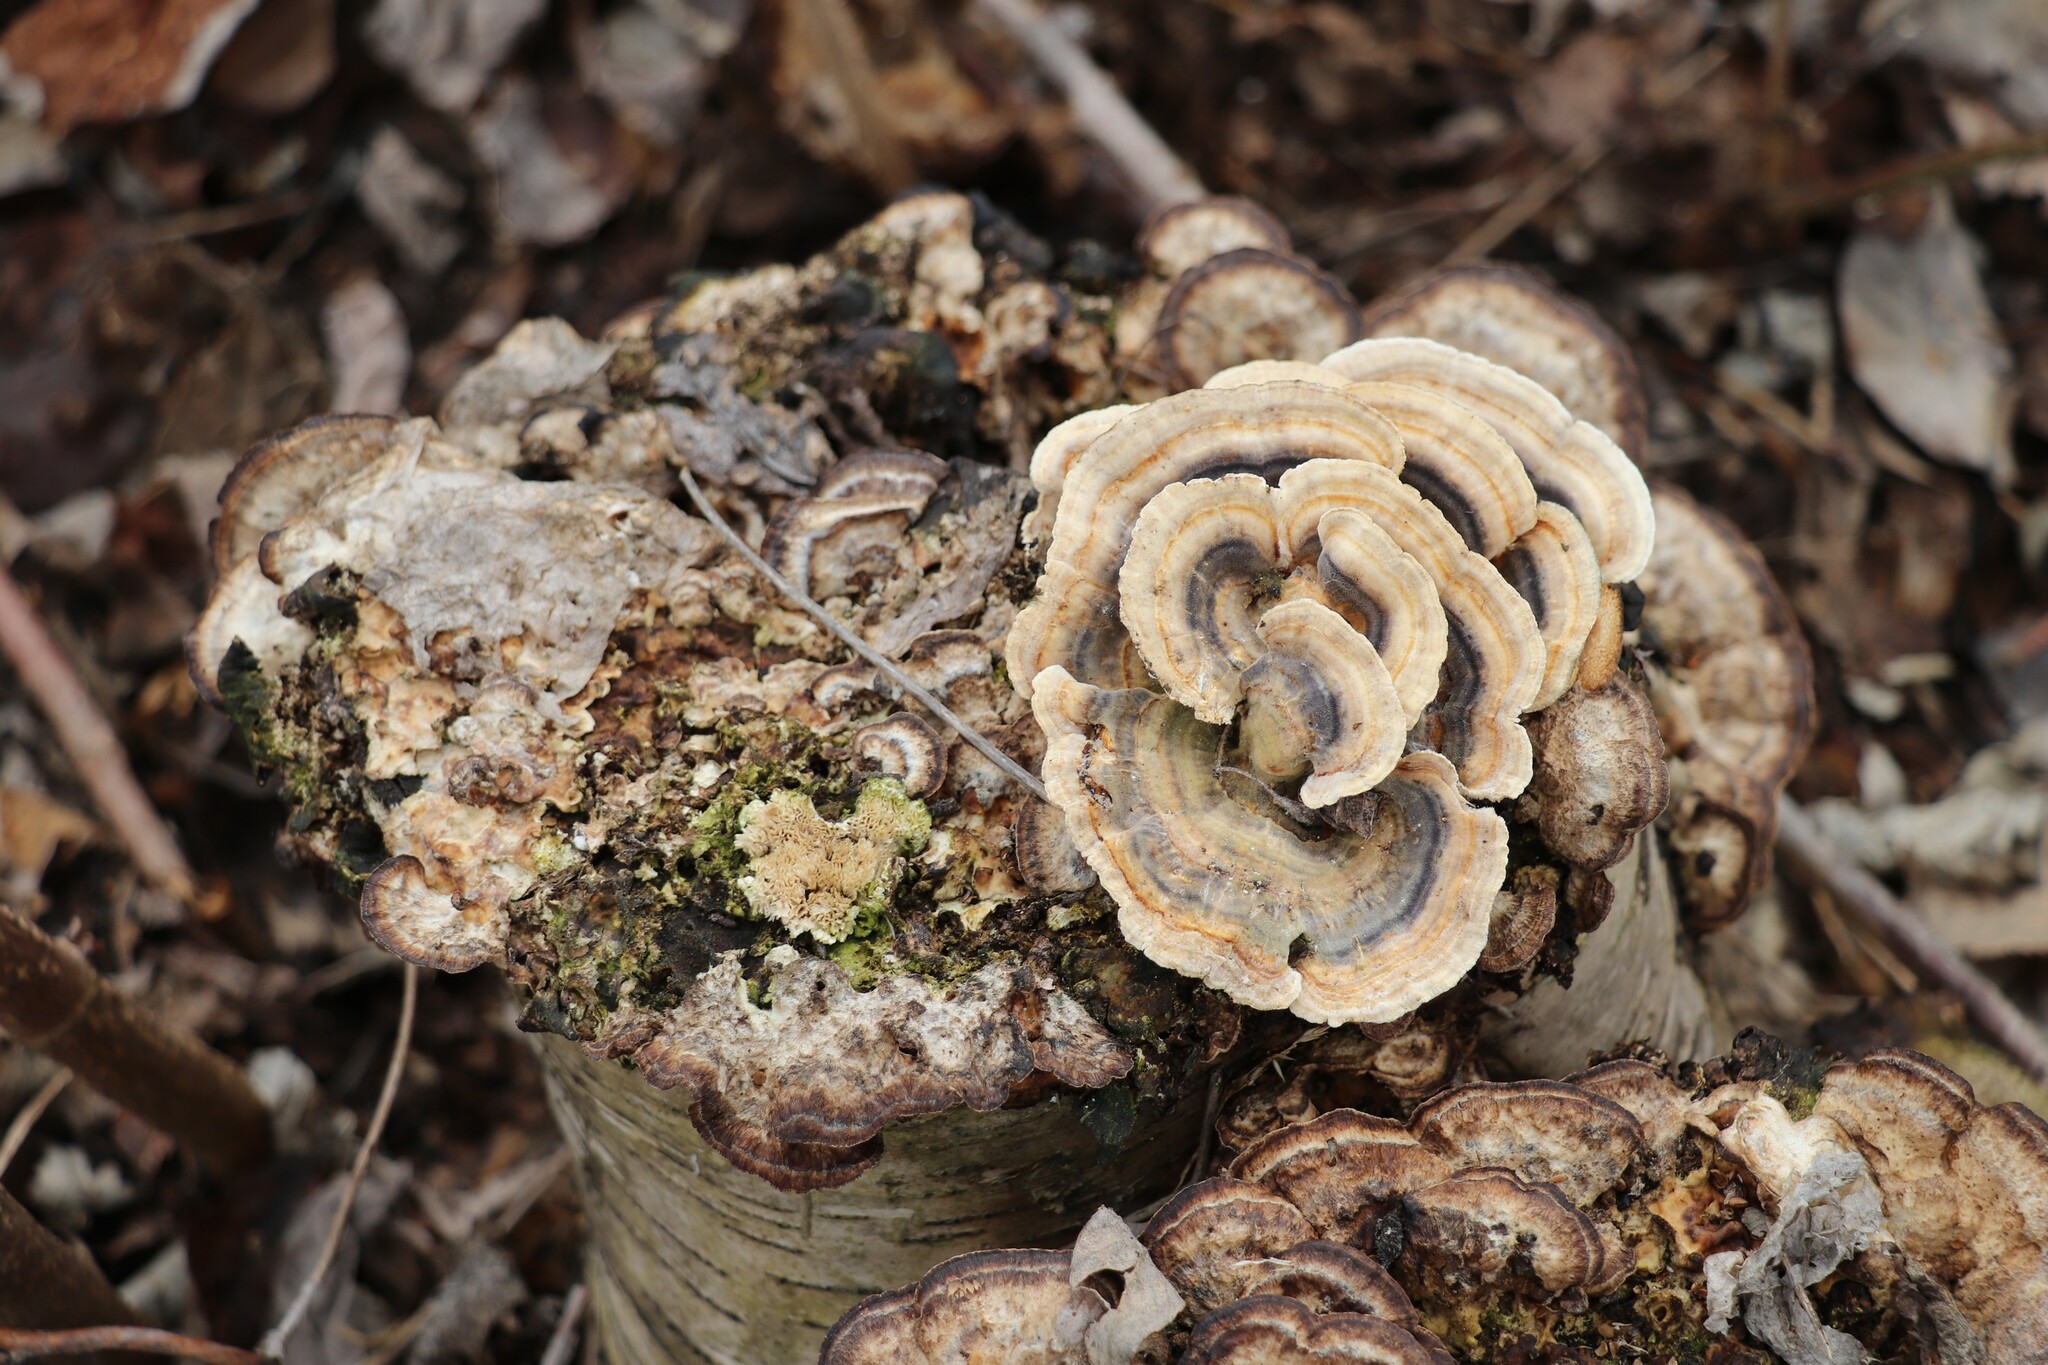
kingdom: Fungi
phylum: Basidiomycota
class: Agaricomycetes
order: Polyporales
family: Polyporaceae
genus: Trametes
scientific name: Trametes versicolor
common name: Turkeytail
